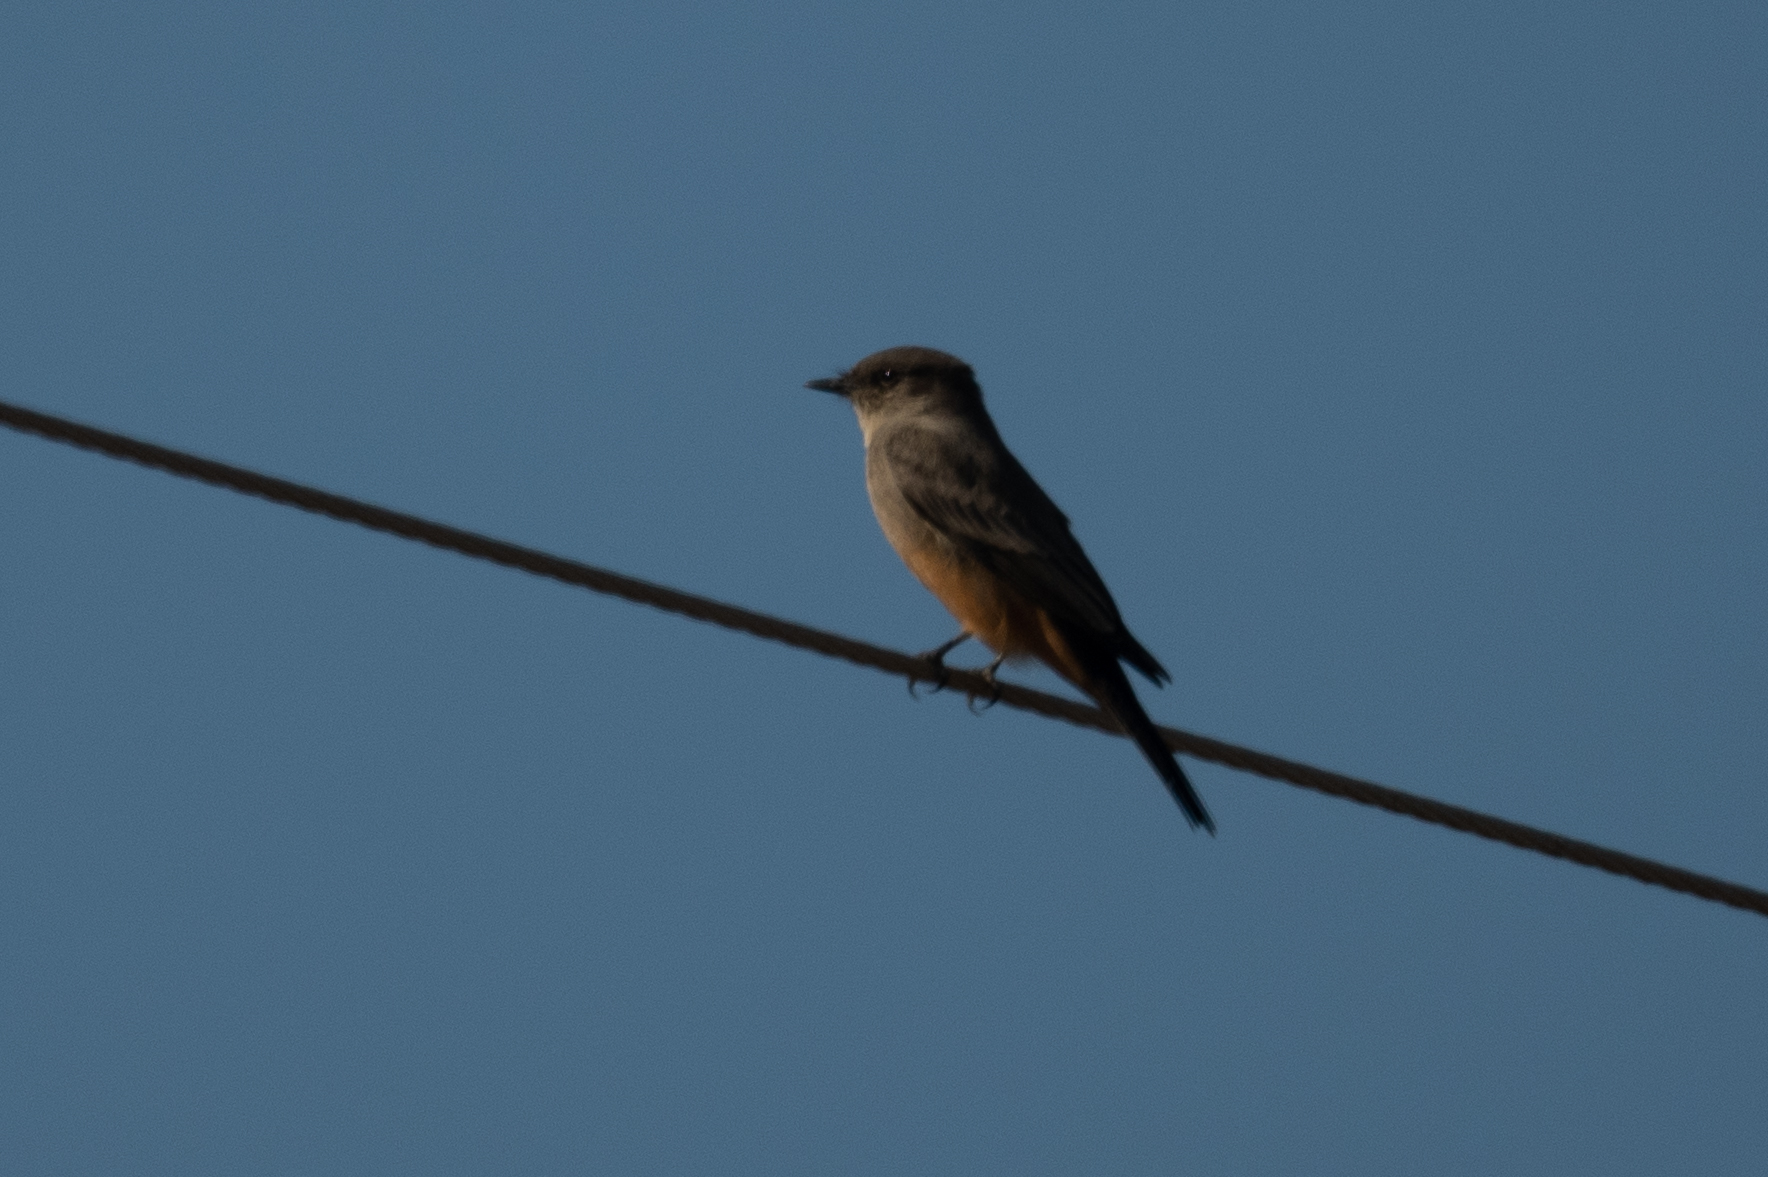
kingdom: Animalia
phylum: Chordata
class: Aves
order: Passeriformes
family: Tyrannidae
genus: Sayornis
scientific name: Sayornis saya
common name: Say's phoebe
